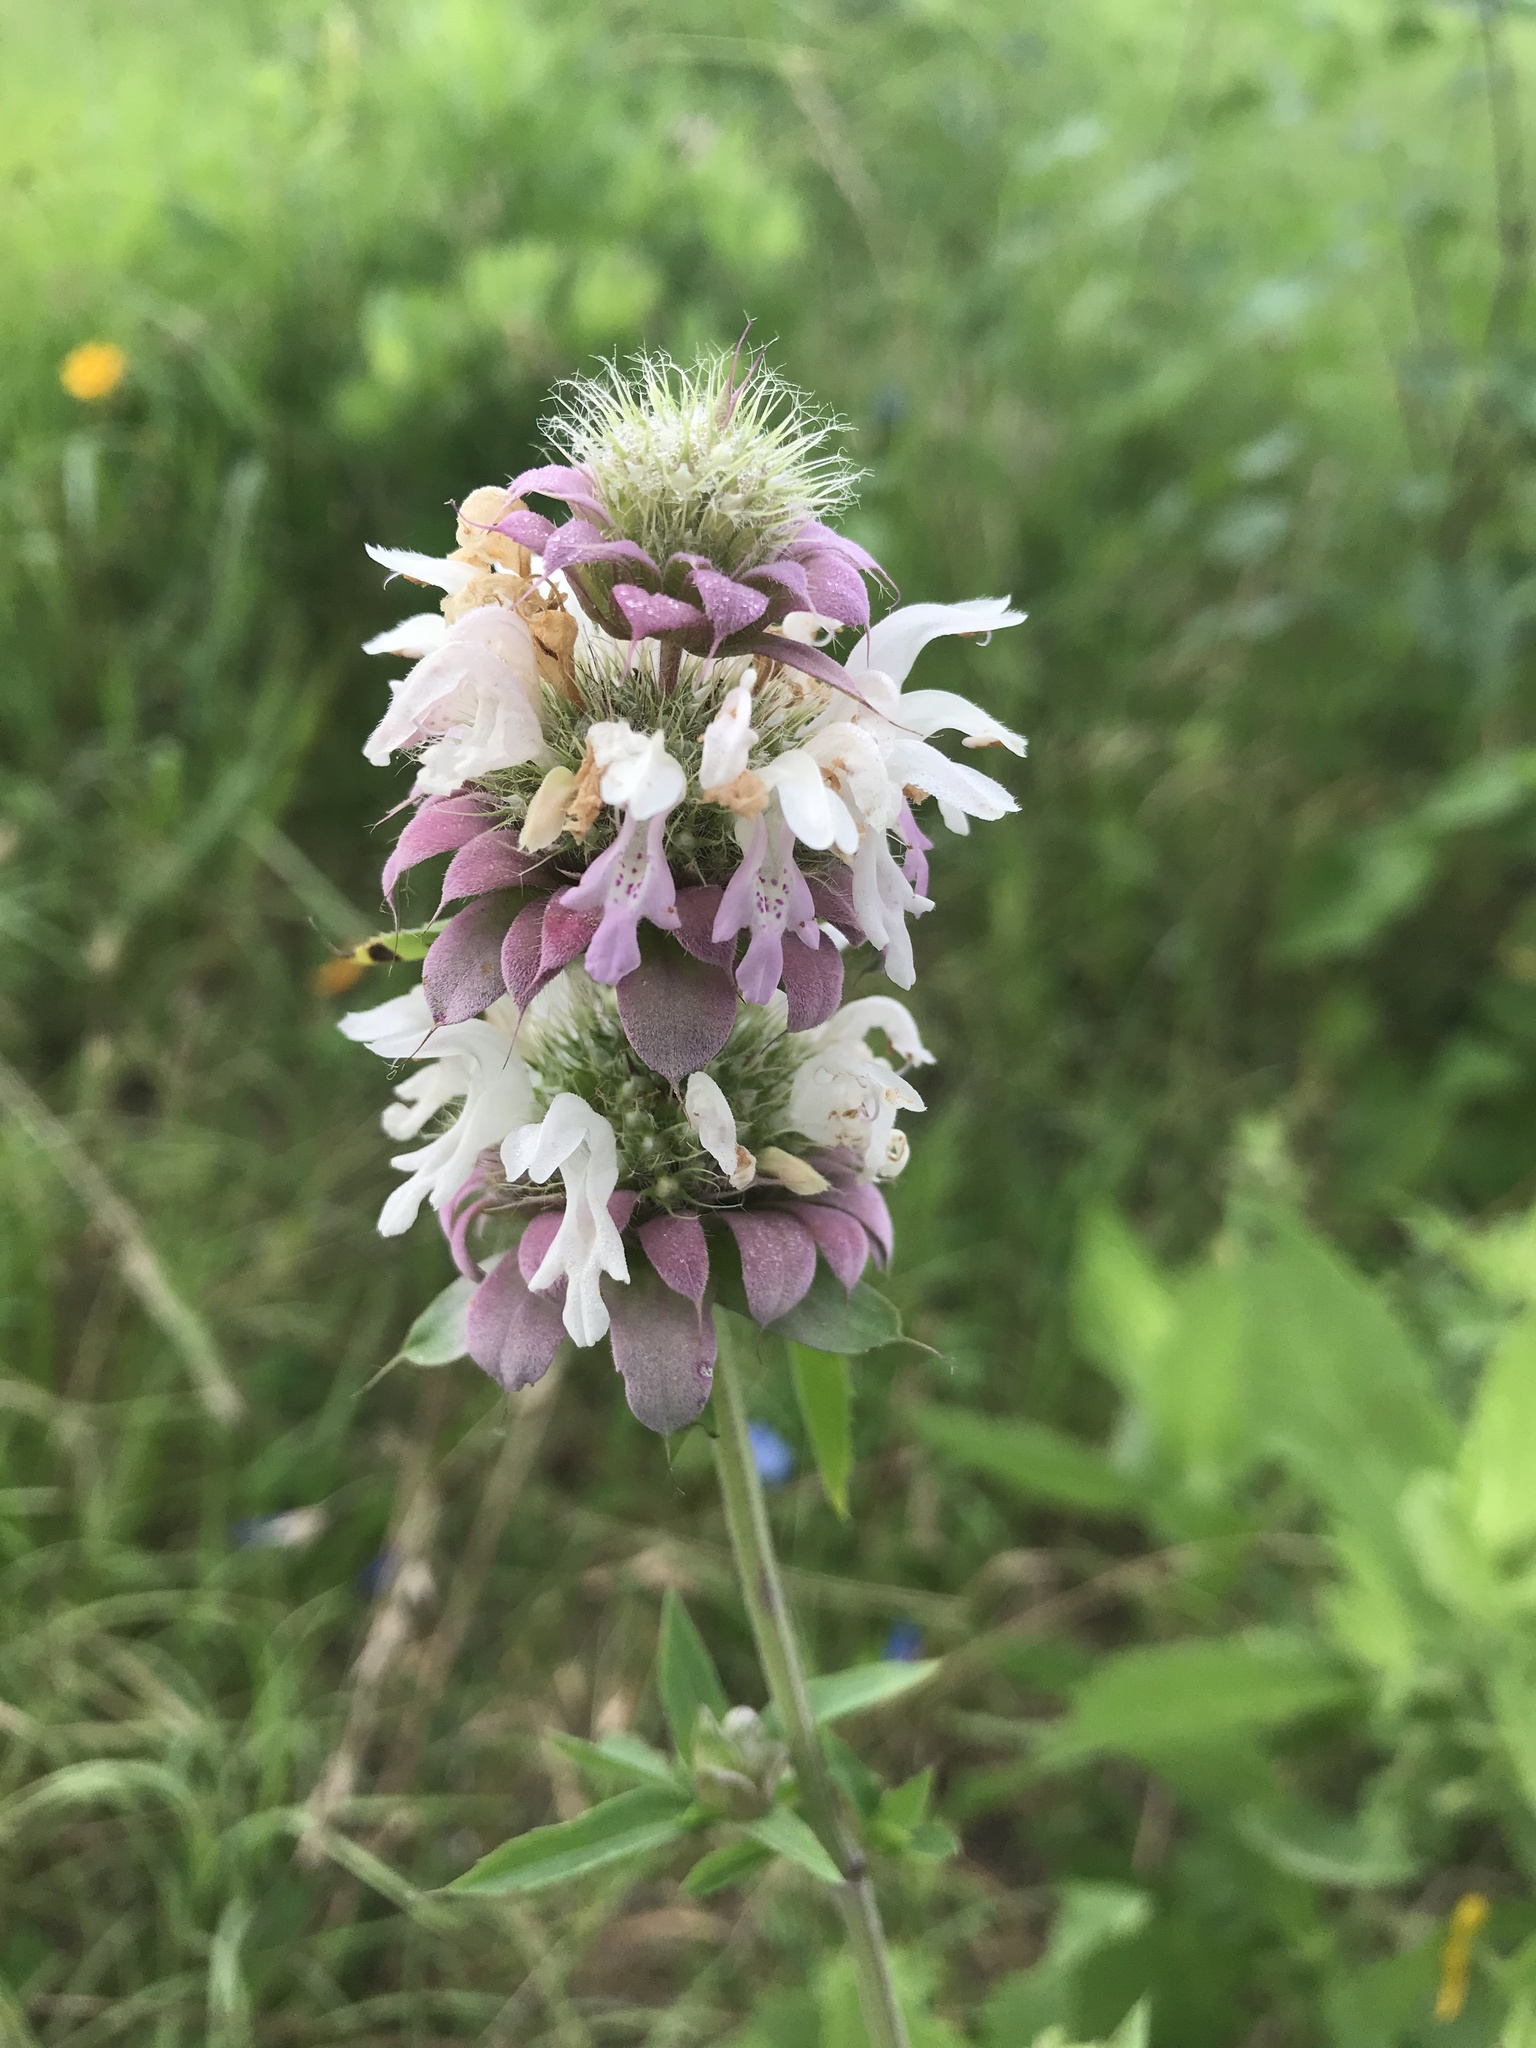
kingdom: Plantae
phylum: Tracheophyta
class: Magnoliopsida
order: Lamiales
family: Lamiaceae
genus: Monarda
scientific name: Monarda citriodora
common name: Lemon beebalm
